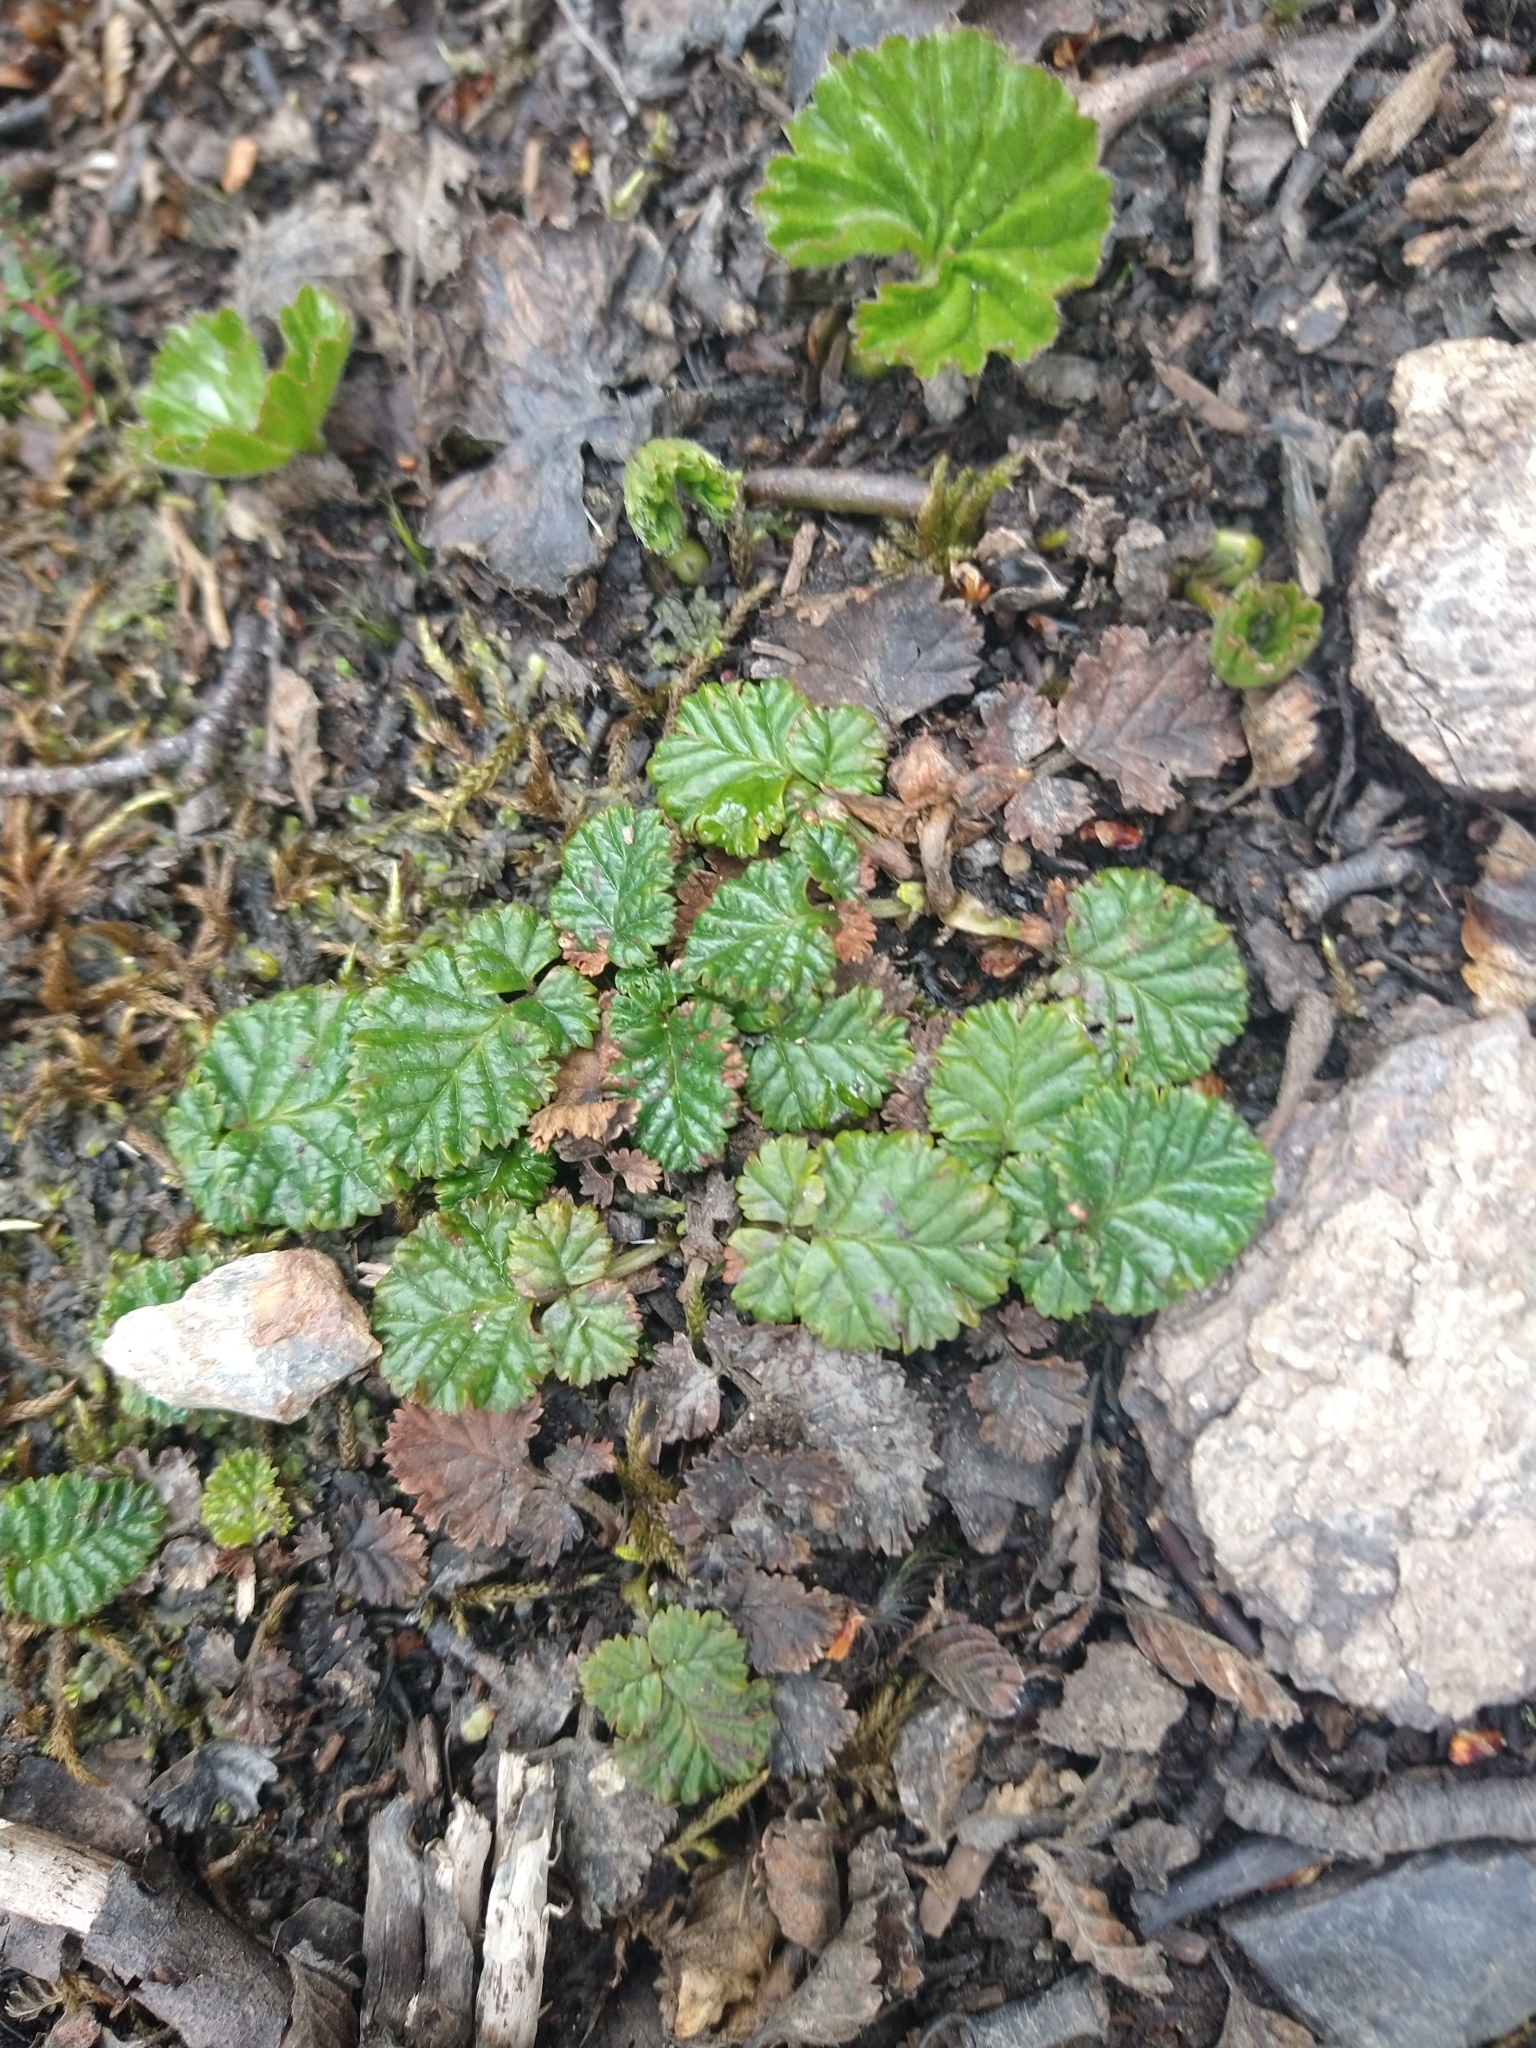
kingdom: Plantae
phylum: Tracheophyta
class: Magnoliopsida
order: Rosales
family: Rosaceae
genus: Rubus
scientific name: Rubus geoides
